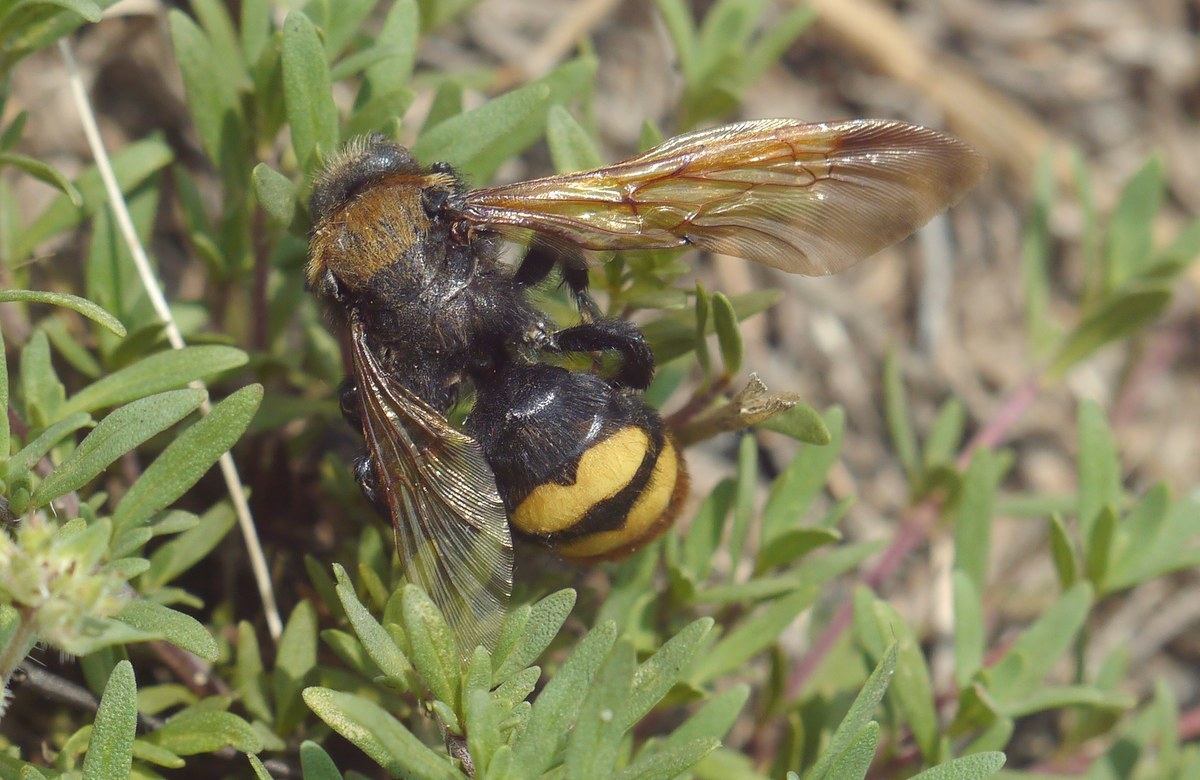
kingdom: Animalia
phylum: Arthropoda
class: Insecta
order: Hymenoptera
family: Scoliidae
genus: Megascolia
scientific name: Megascolia maculata
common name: Mammoth wasp
